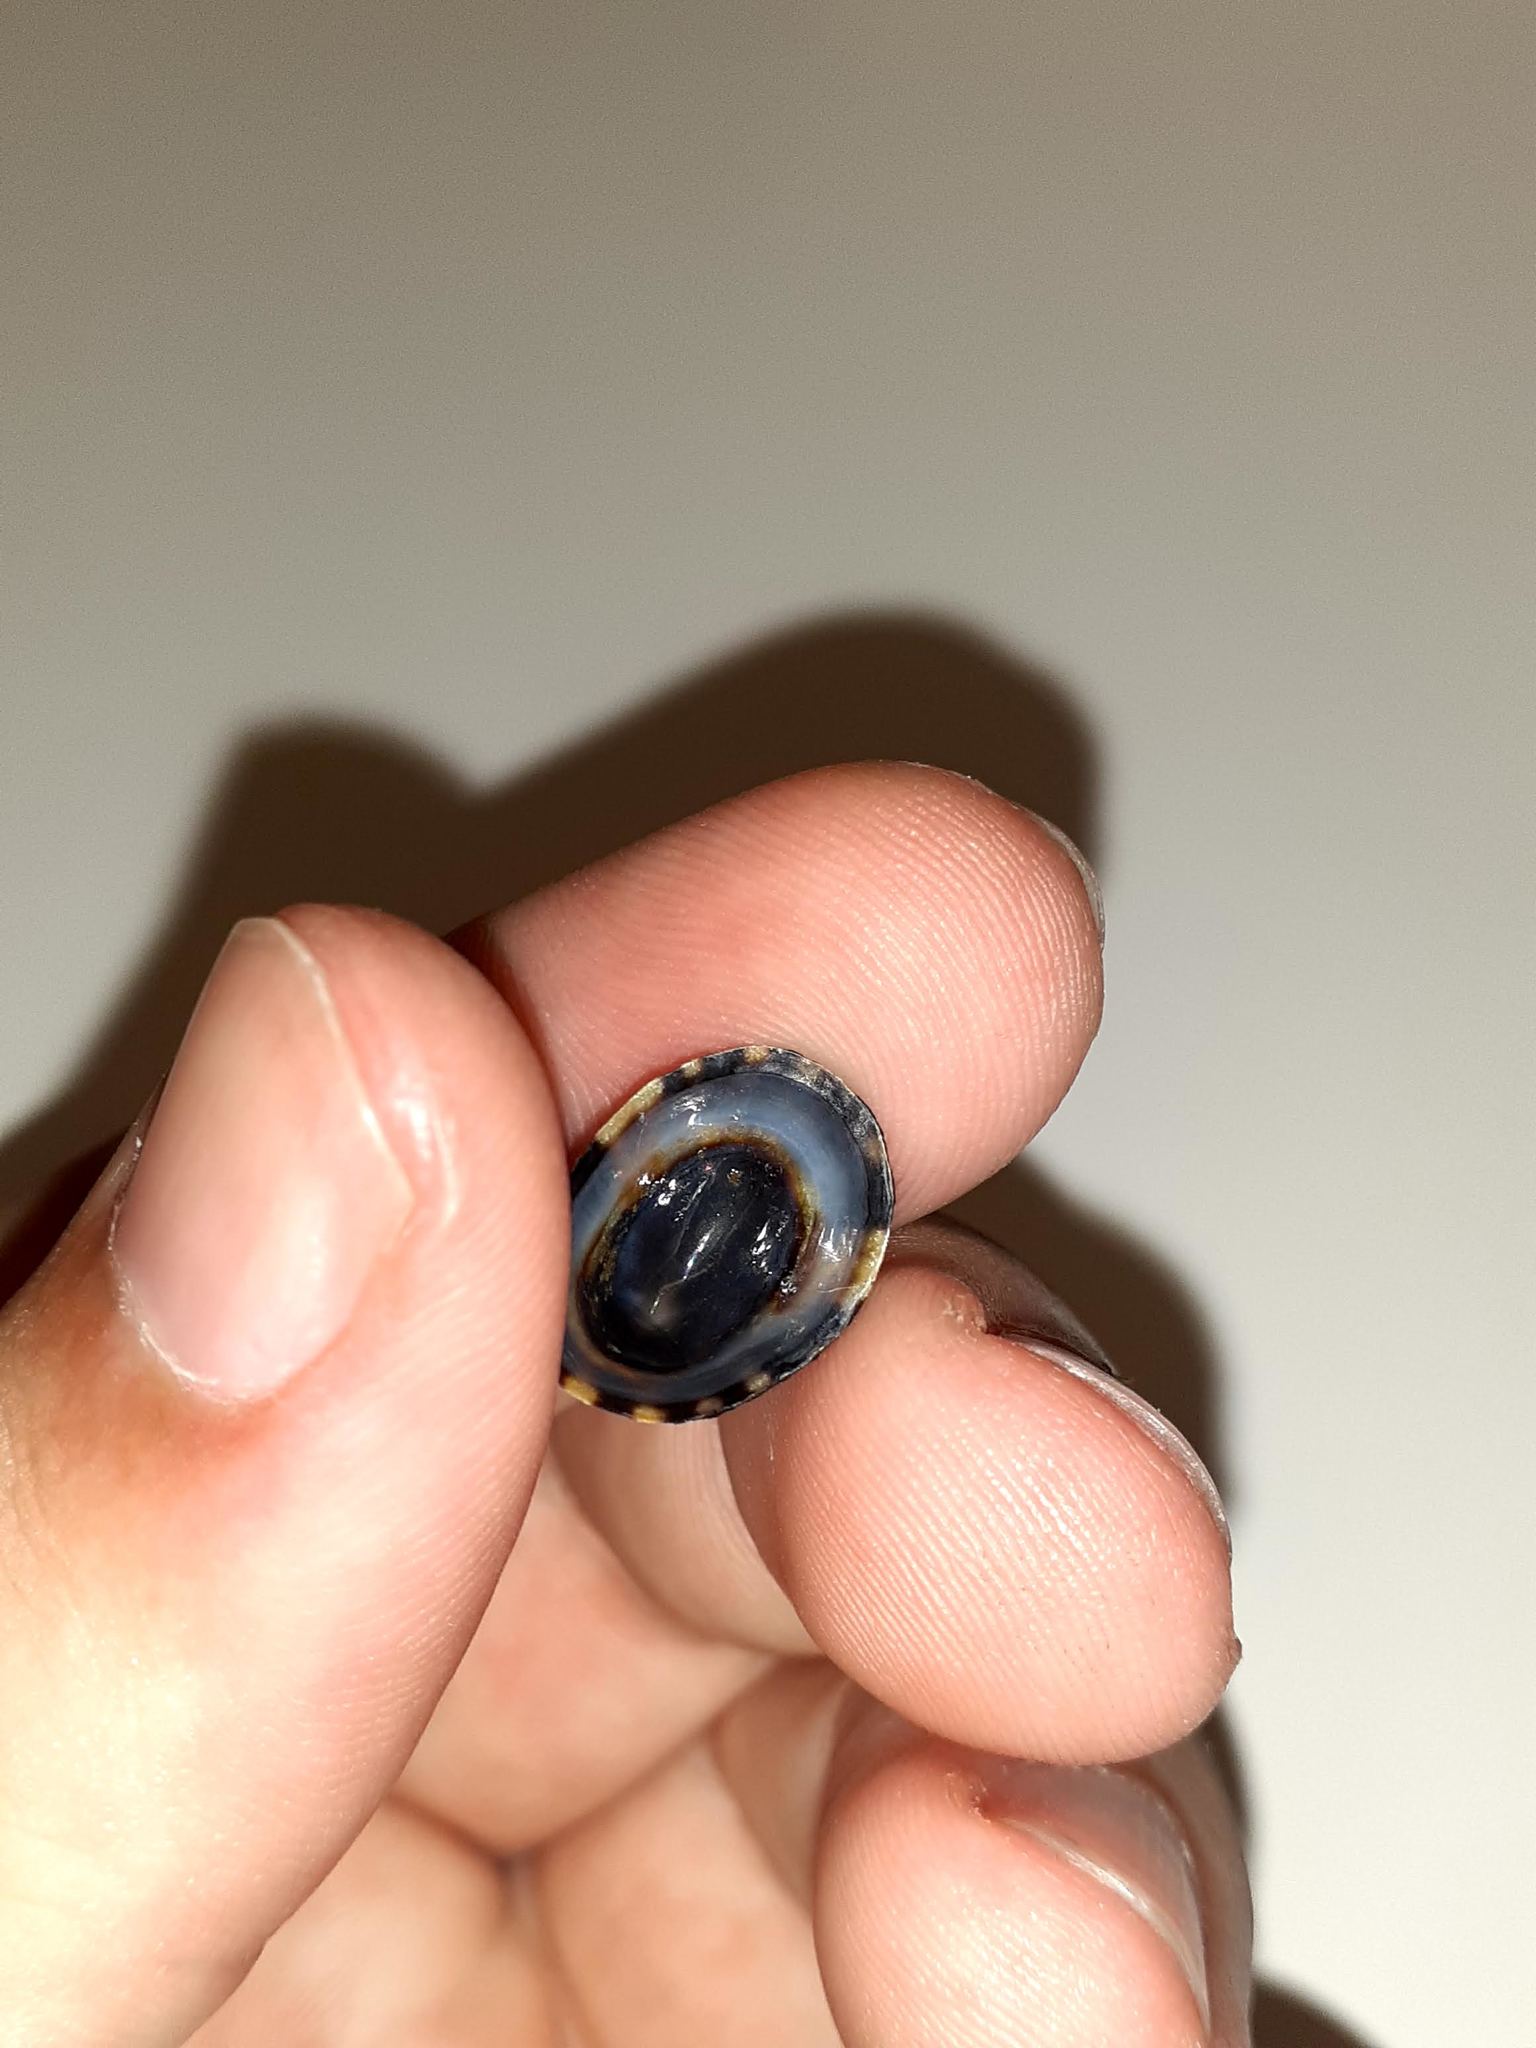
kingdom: Animalia
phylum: Mollusca
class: Gastropoda
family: Lottiidae
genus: Testudinalia
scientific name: Testudinalia testudinalis
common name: Common tortoiseshell limpet
